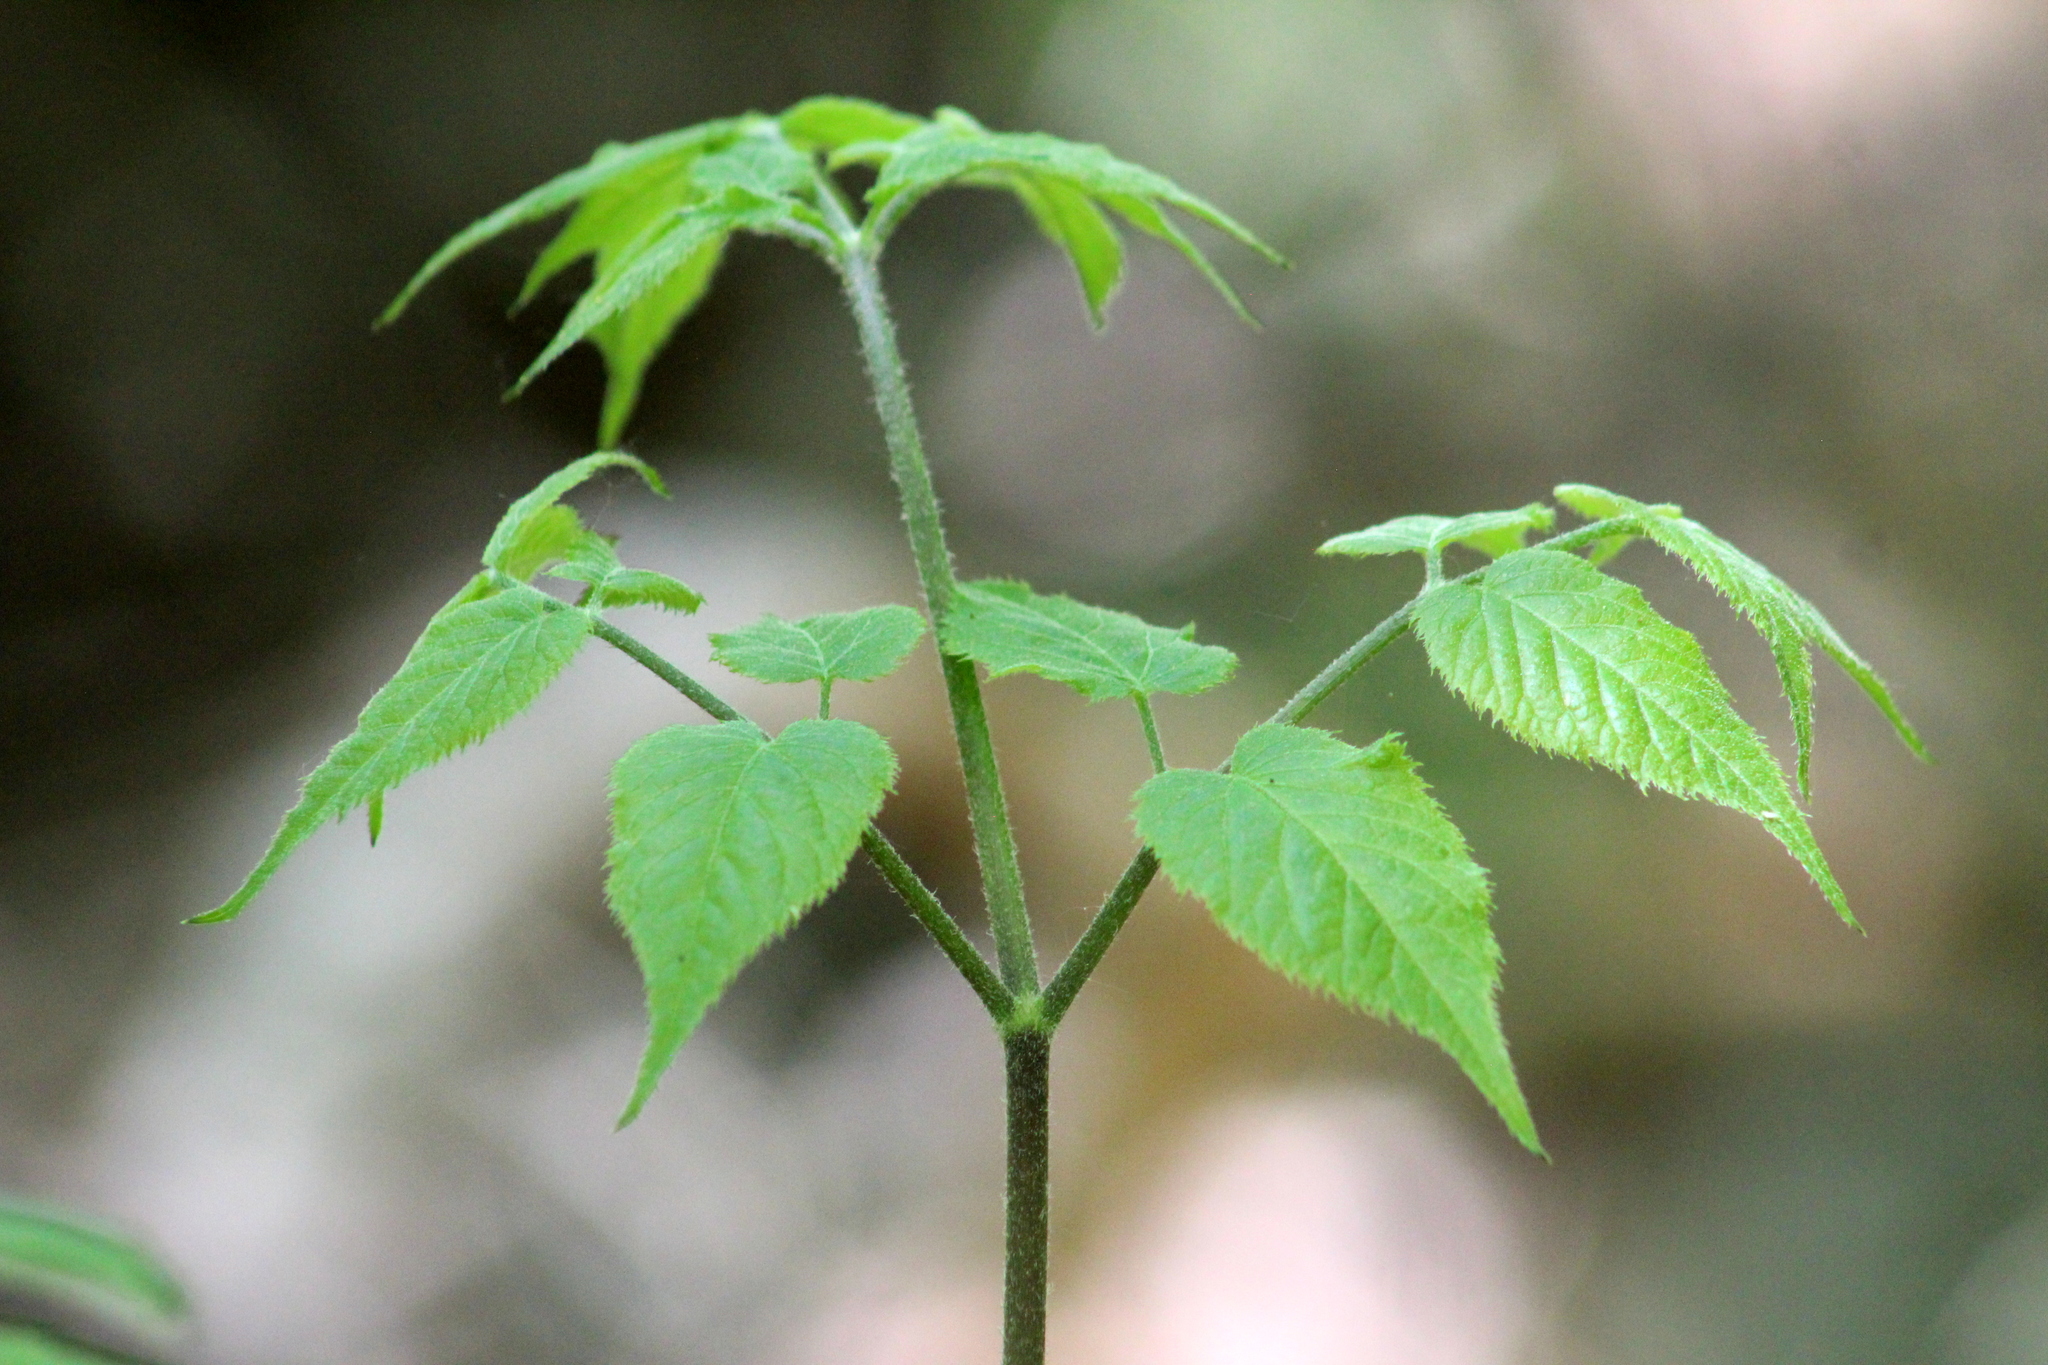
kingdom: Plantae
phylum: Tracheophyta
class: Magnoliopsida
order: Apiales
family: Araliaceae
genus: Aralia
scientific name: Aralia racemosa
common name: American-spikenard
